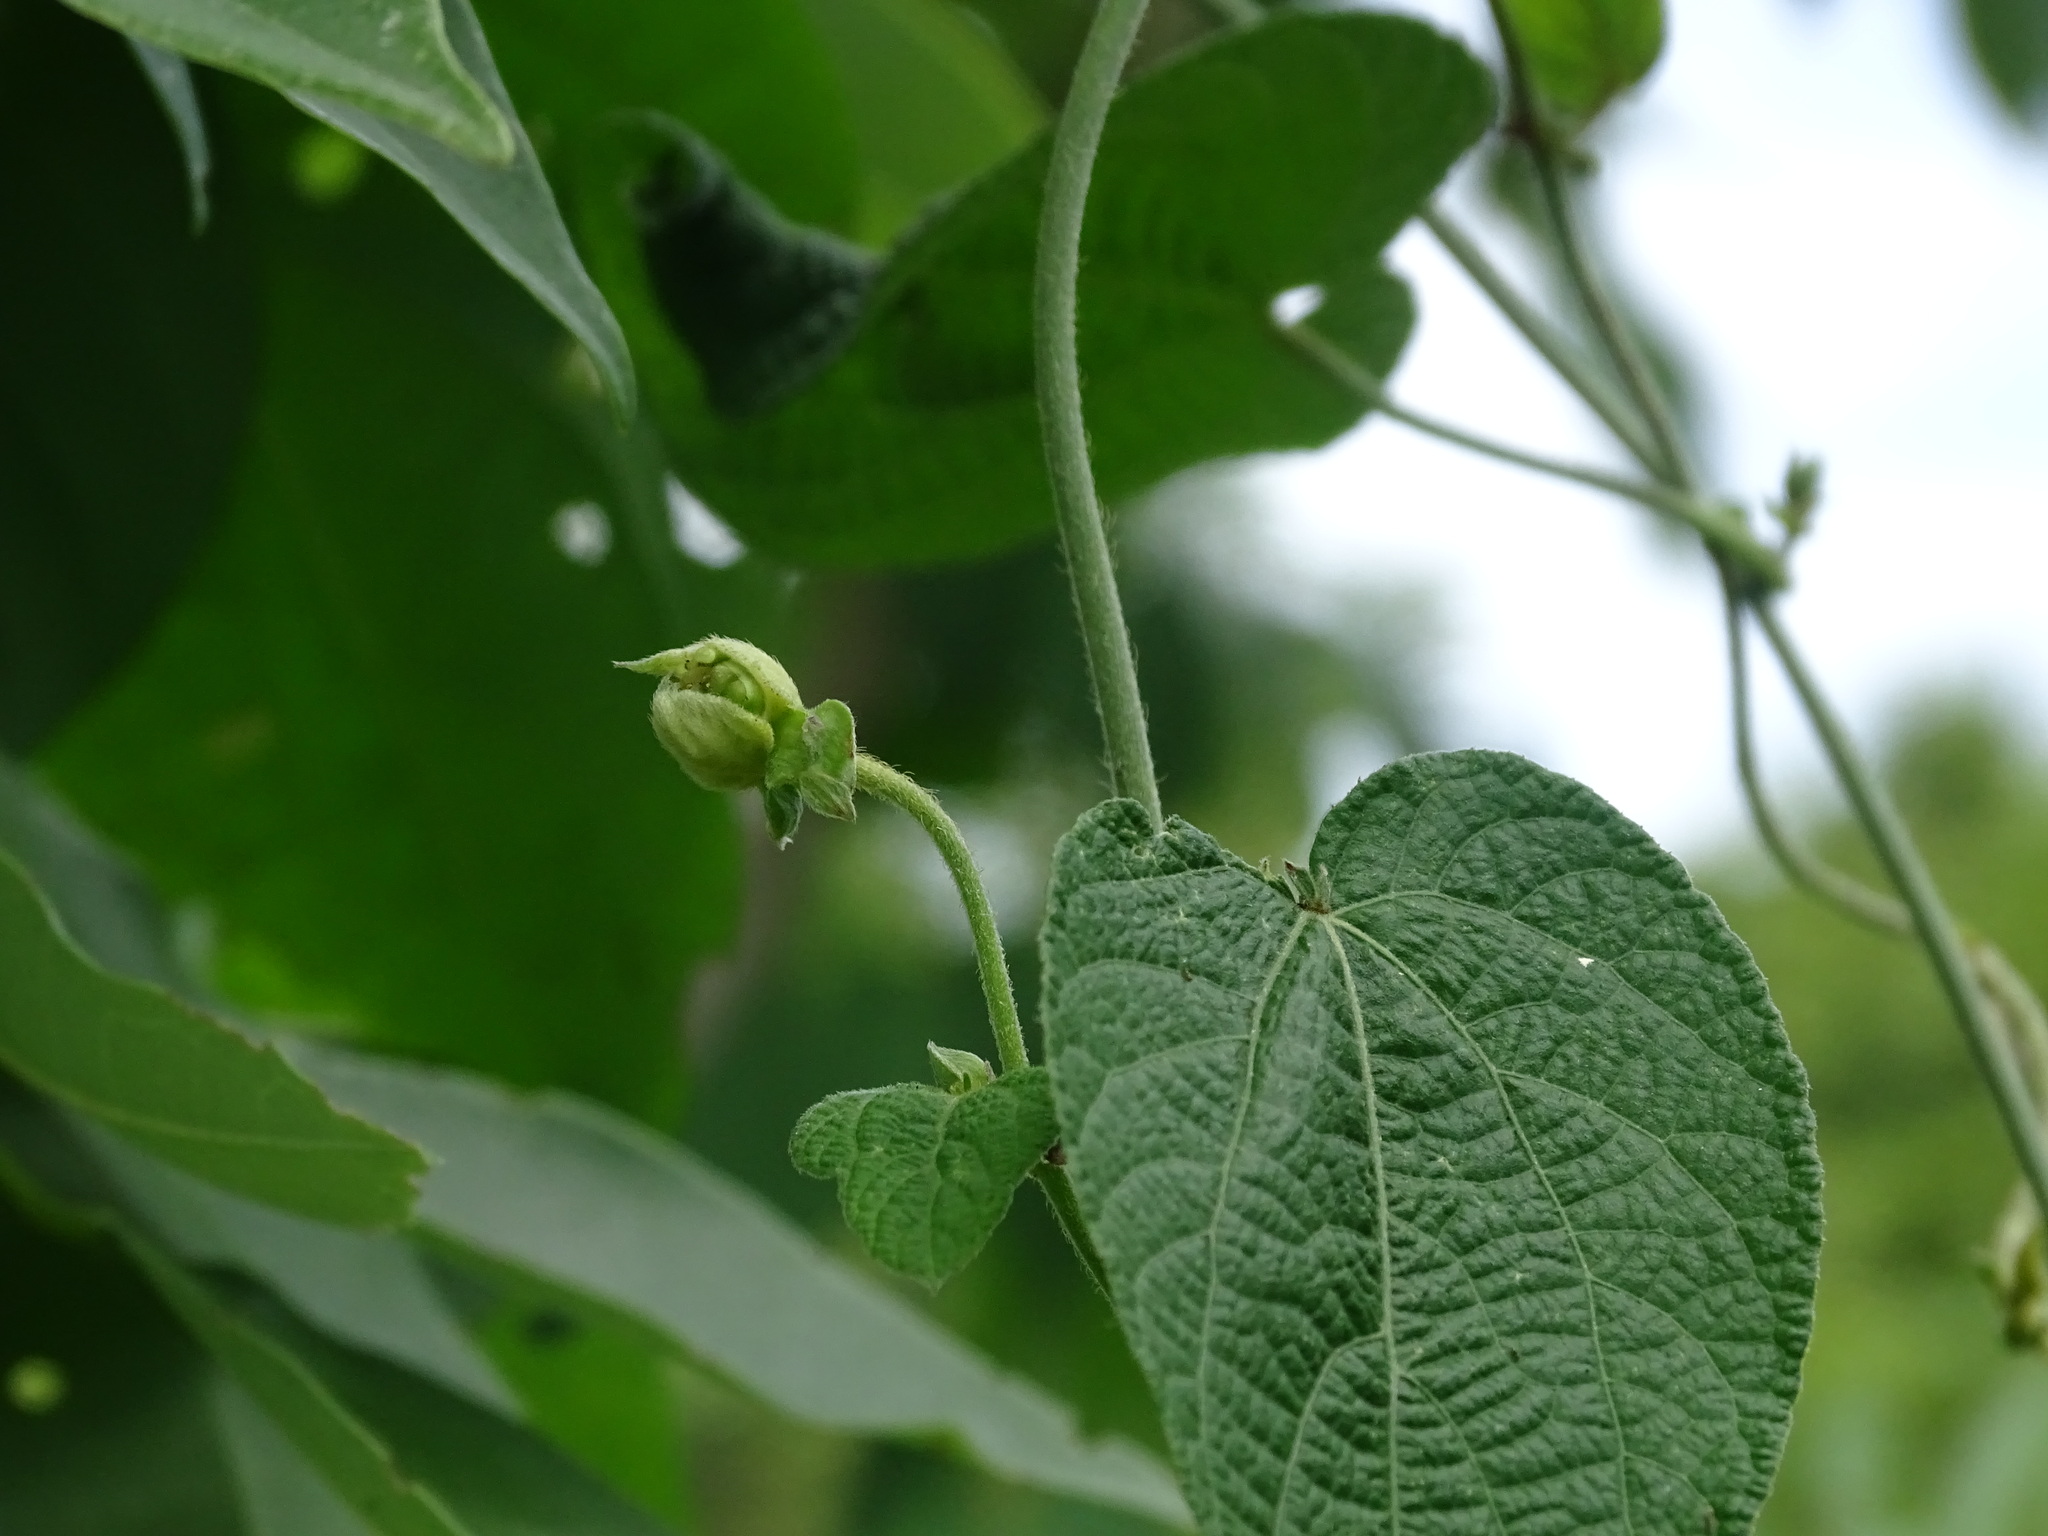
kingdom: Plantae
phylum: Tracheophyta
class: Magnoliopsida
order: Malpighiales
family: Euphorbiaceae
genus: Dalechampia
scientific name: Dalechampia scandens
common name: Spurgecreeper
